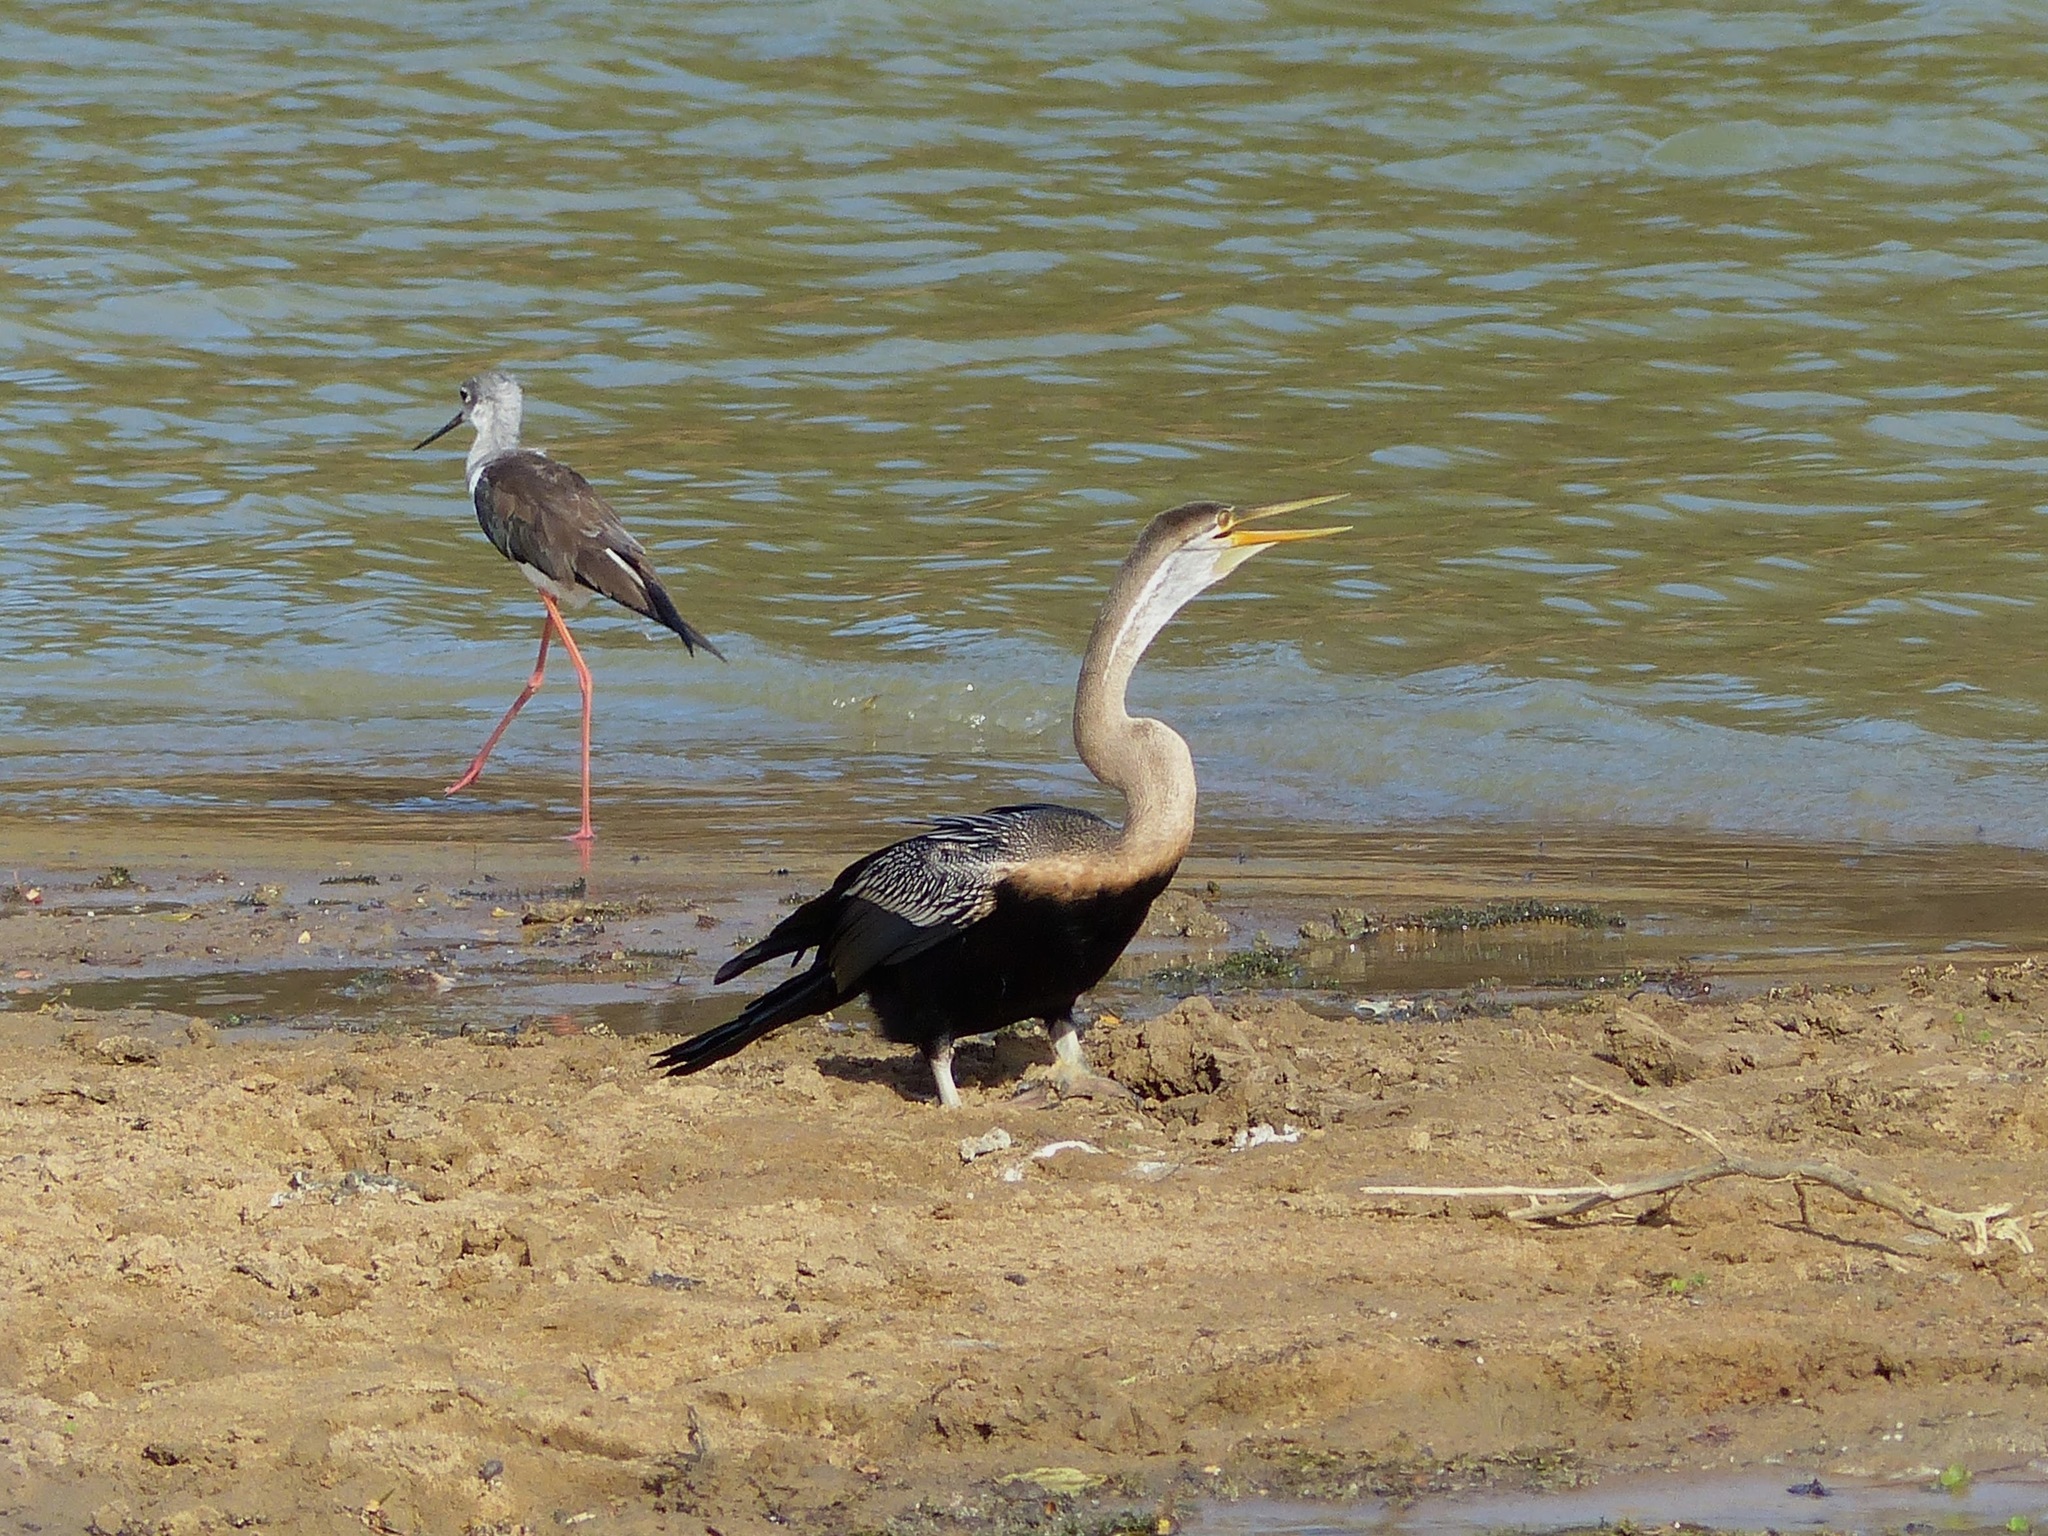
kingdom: Animalia
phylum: Chordata
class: Aves
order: Suliformes
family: Anhingidae
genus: Anhinga
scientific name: Anhinga melanogaster
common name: Oriental darter
